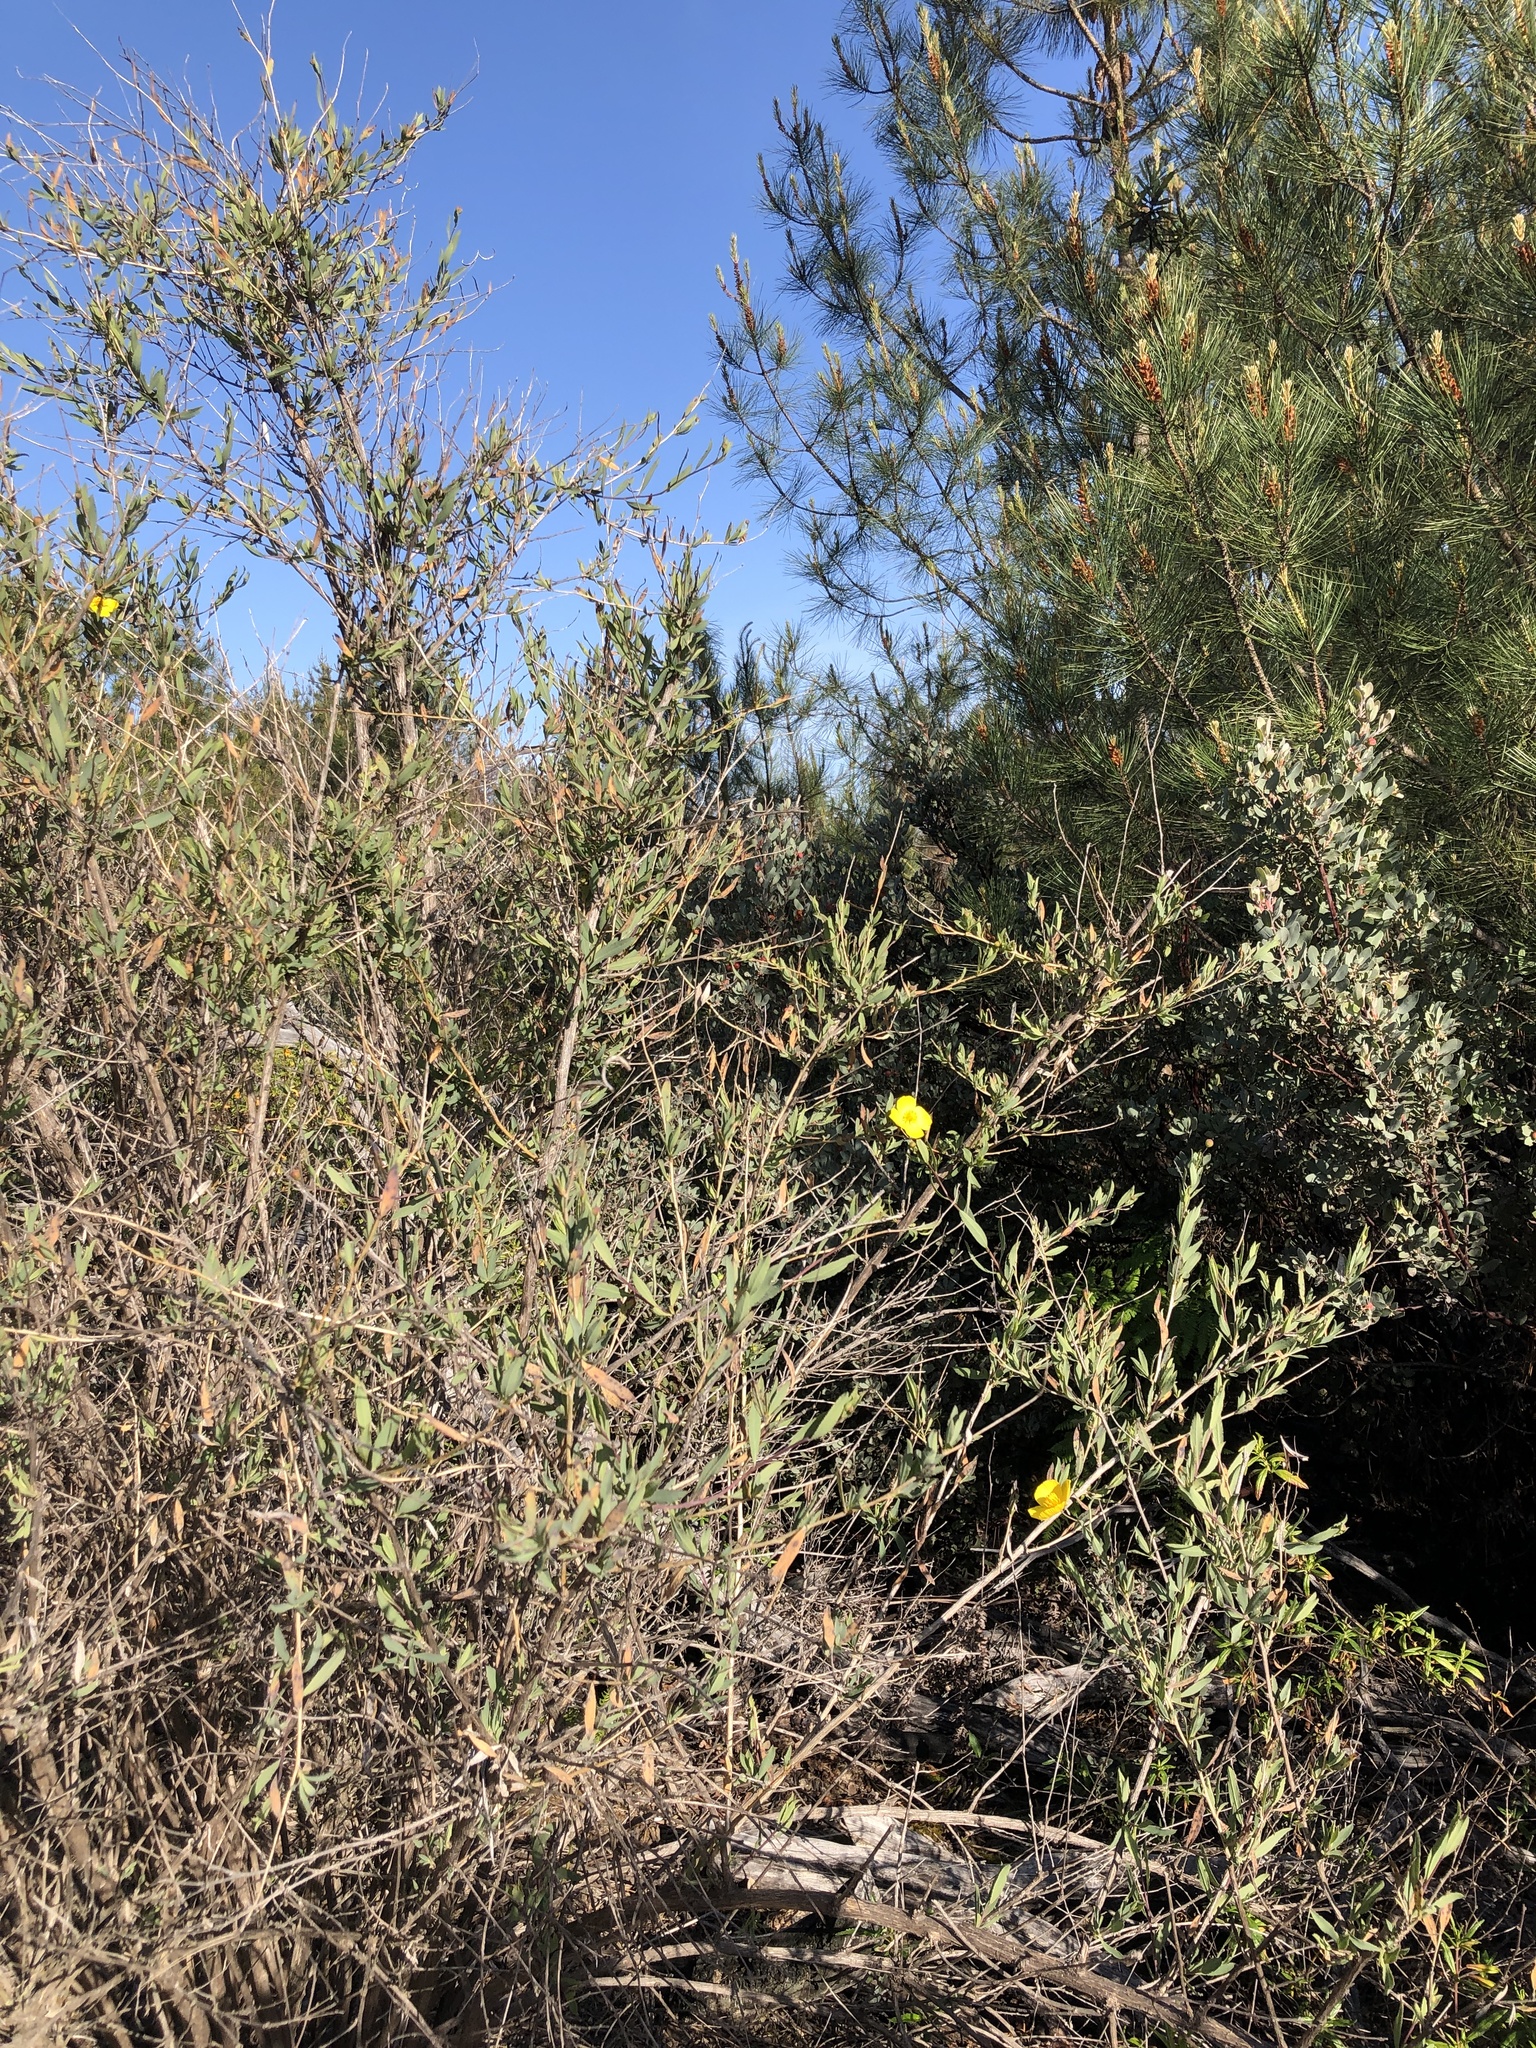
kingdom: Plantae
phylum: Tracheophyta
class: Magnoliopsida
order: Ranunculales
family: Papaveraceae
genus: Dendromecon
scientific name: Dendromecon rigida
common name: Tree poppy
